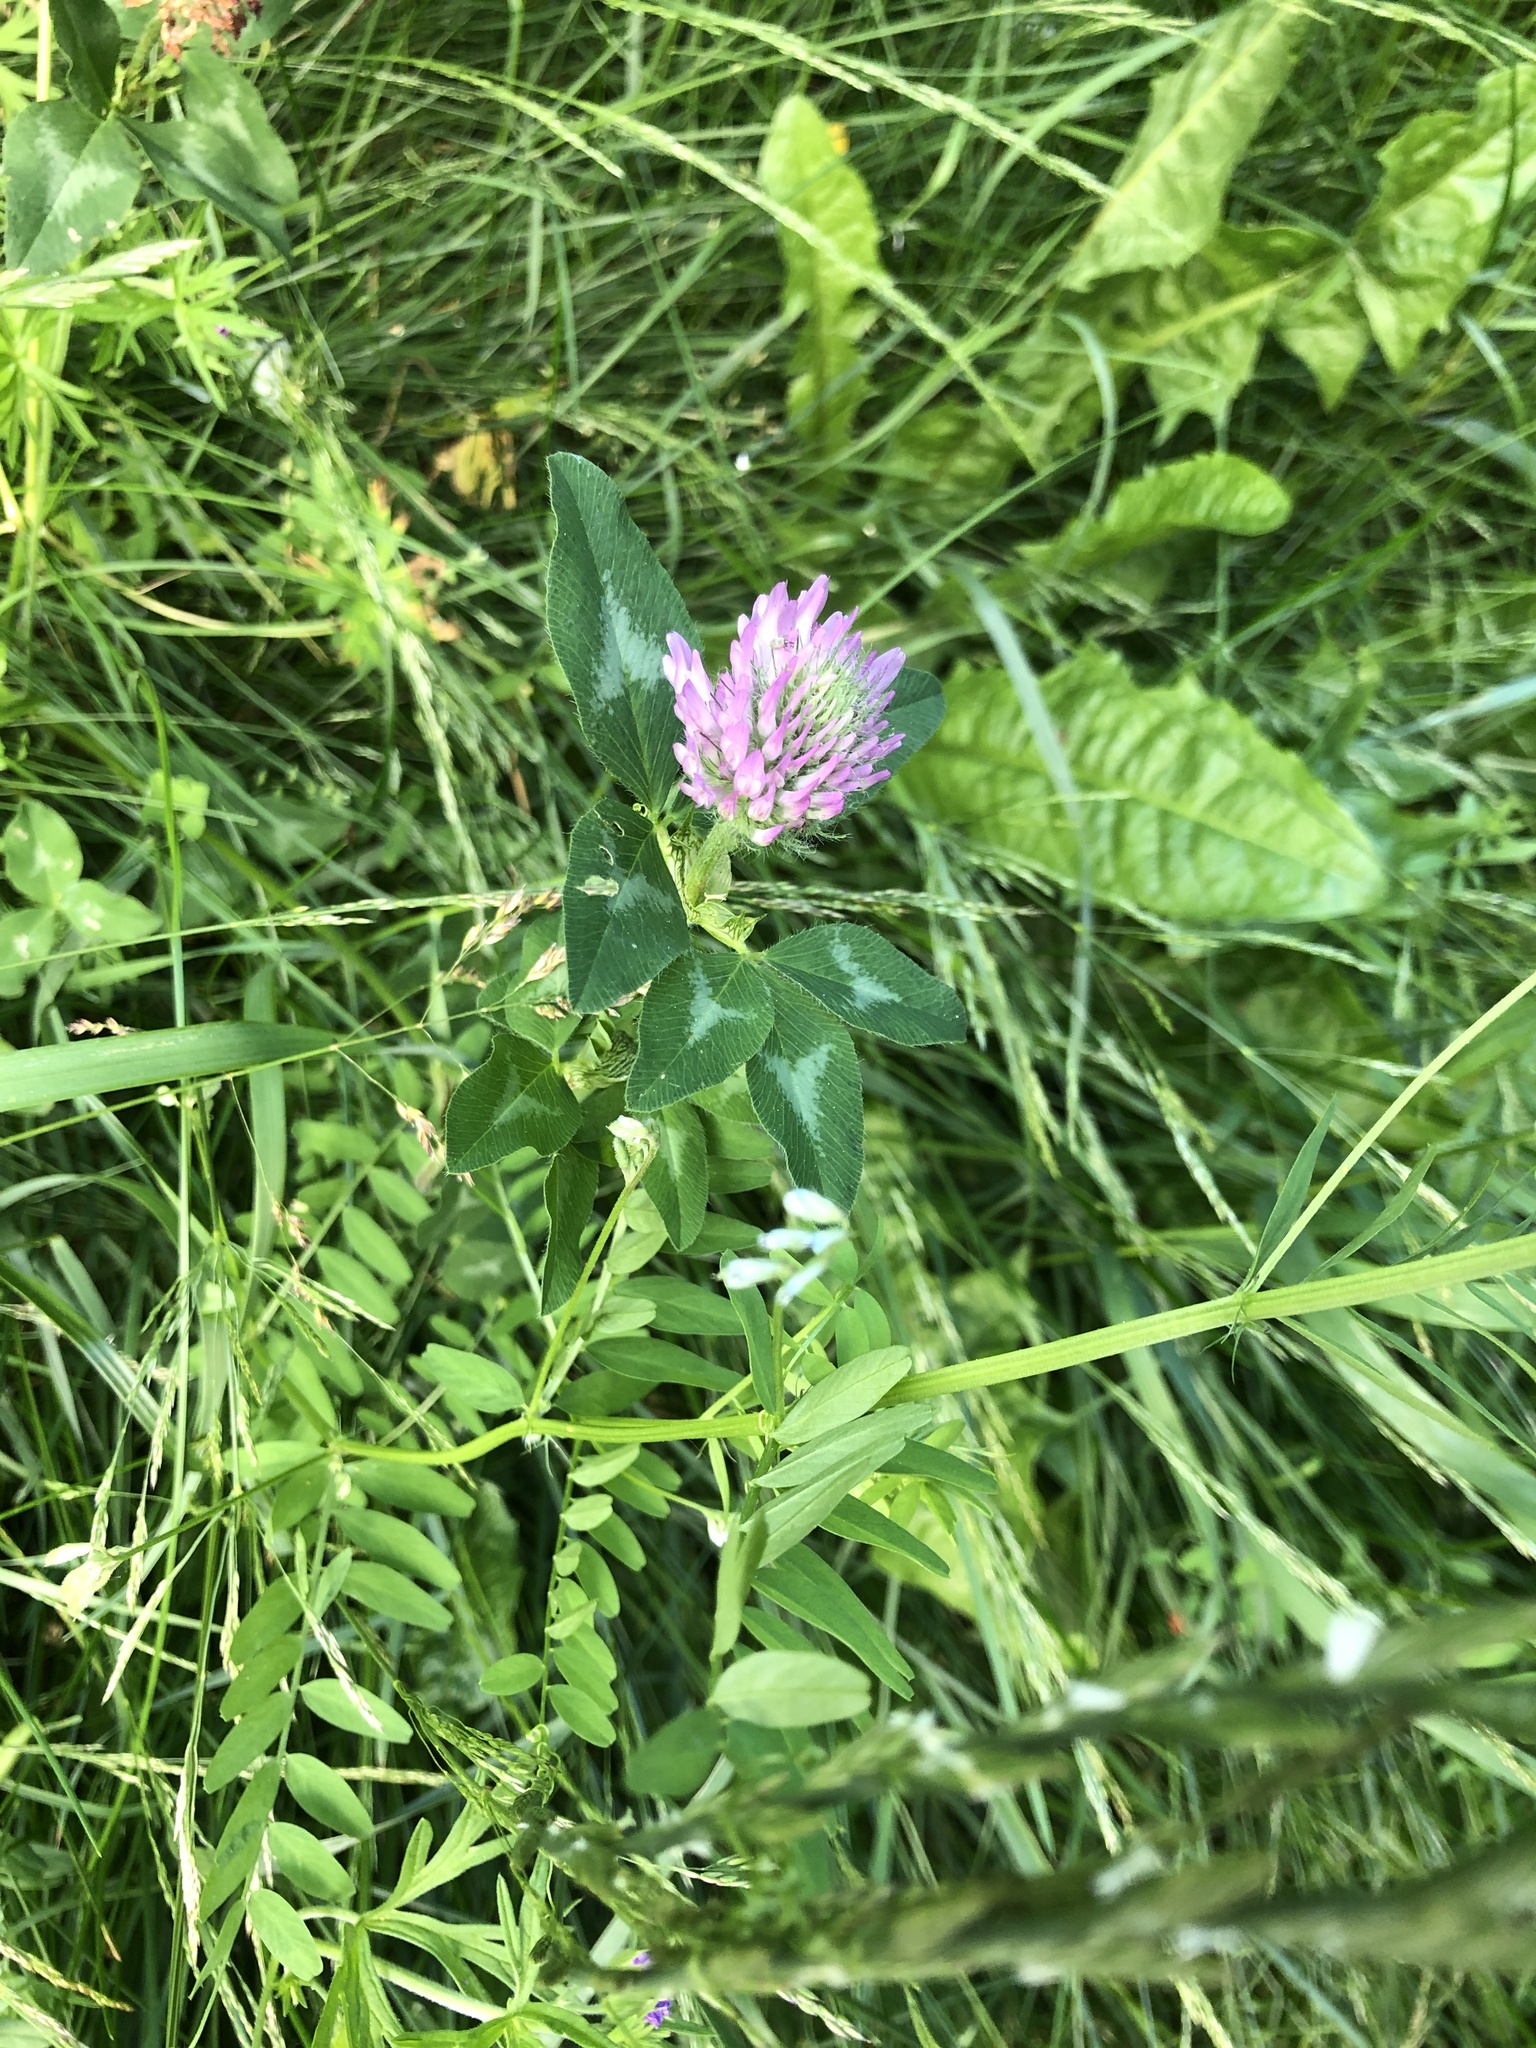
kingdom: Plantae
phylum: Tracheophyta
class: Magnoliopsida
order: Fabales
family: Fabaceae
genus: Trifolium
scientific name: Trifolium pratense
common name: Red clover
